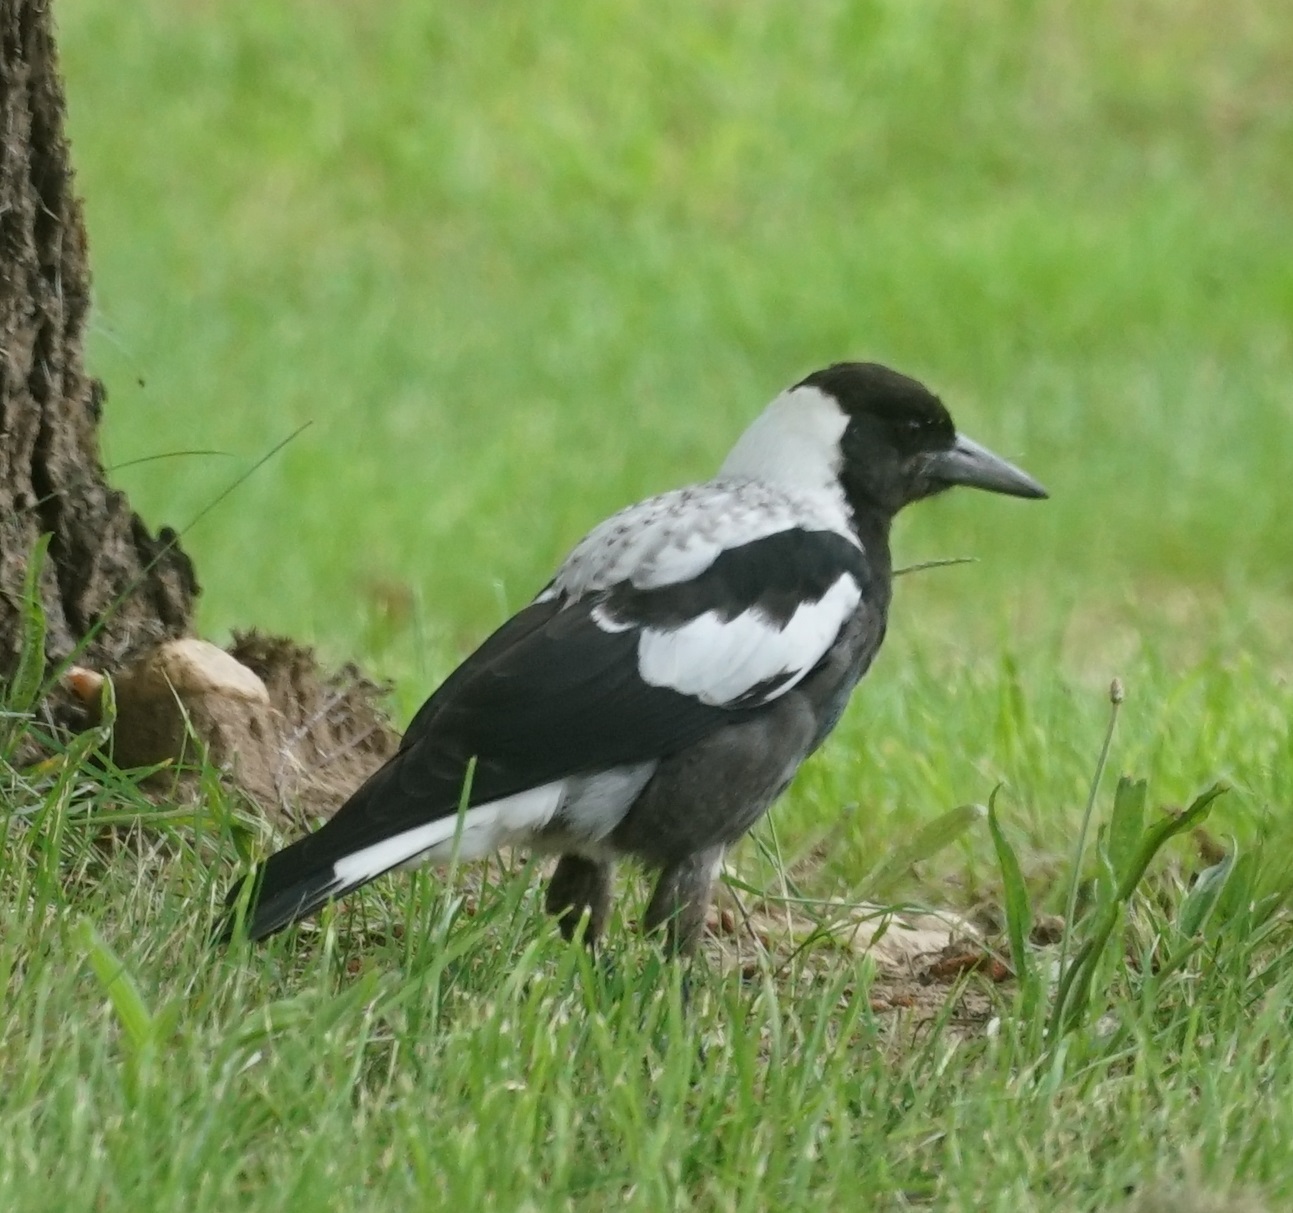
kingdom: Animalia
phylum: Chordata
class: Aves
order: Passeriformes
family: Cracticidae
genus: Gymnorhina
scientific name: Gymnorhina tibicen
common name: Australian magpie
